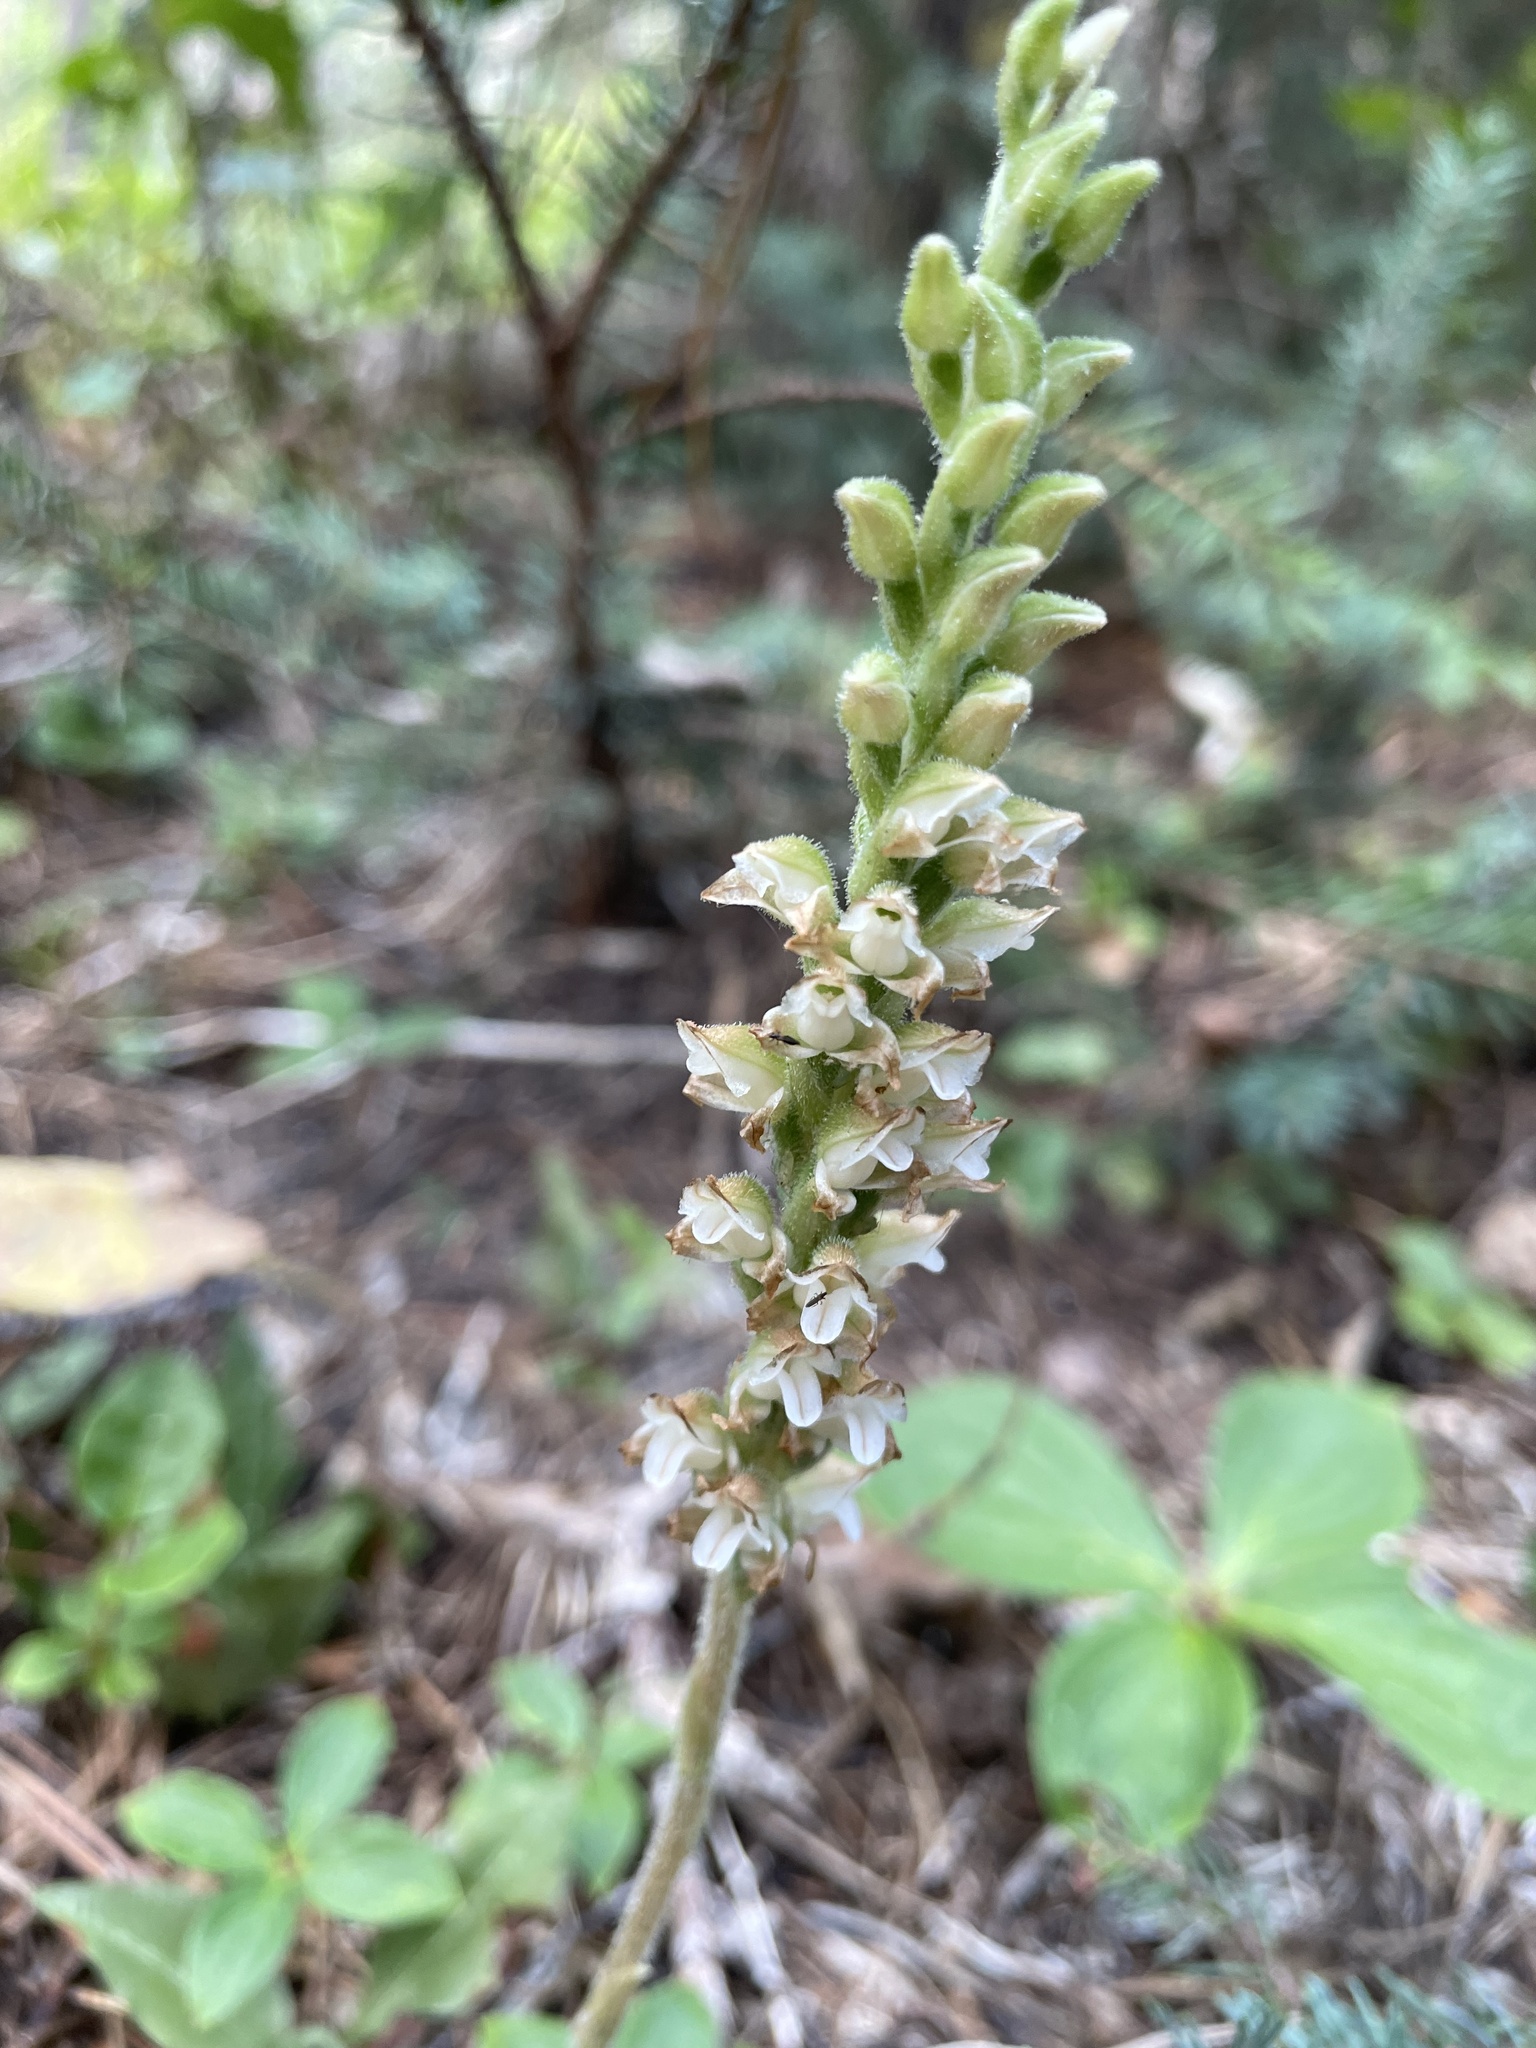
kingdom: Plantae
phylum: Tracheophyta
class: Liliopsida
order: Asparagales
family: Orchidaceae
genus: Goodyera
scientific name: Goodyera oblongifolia
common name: Giant rattlesnake-plantain
